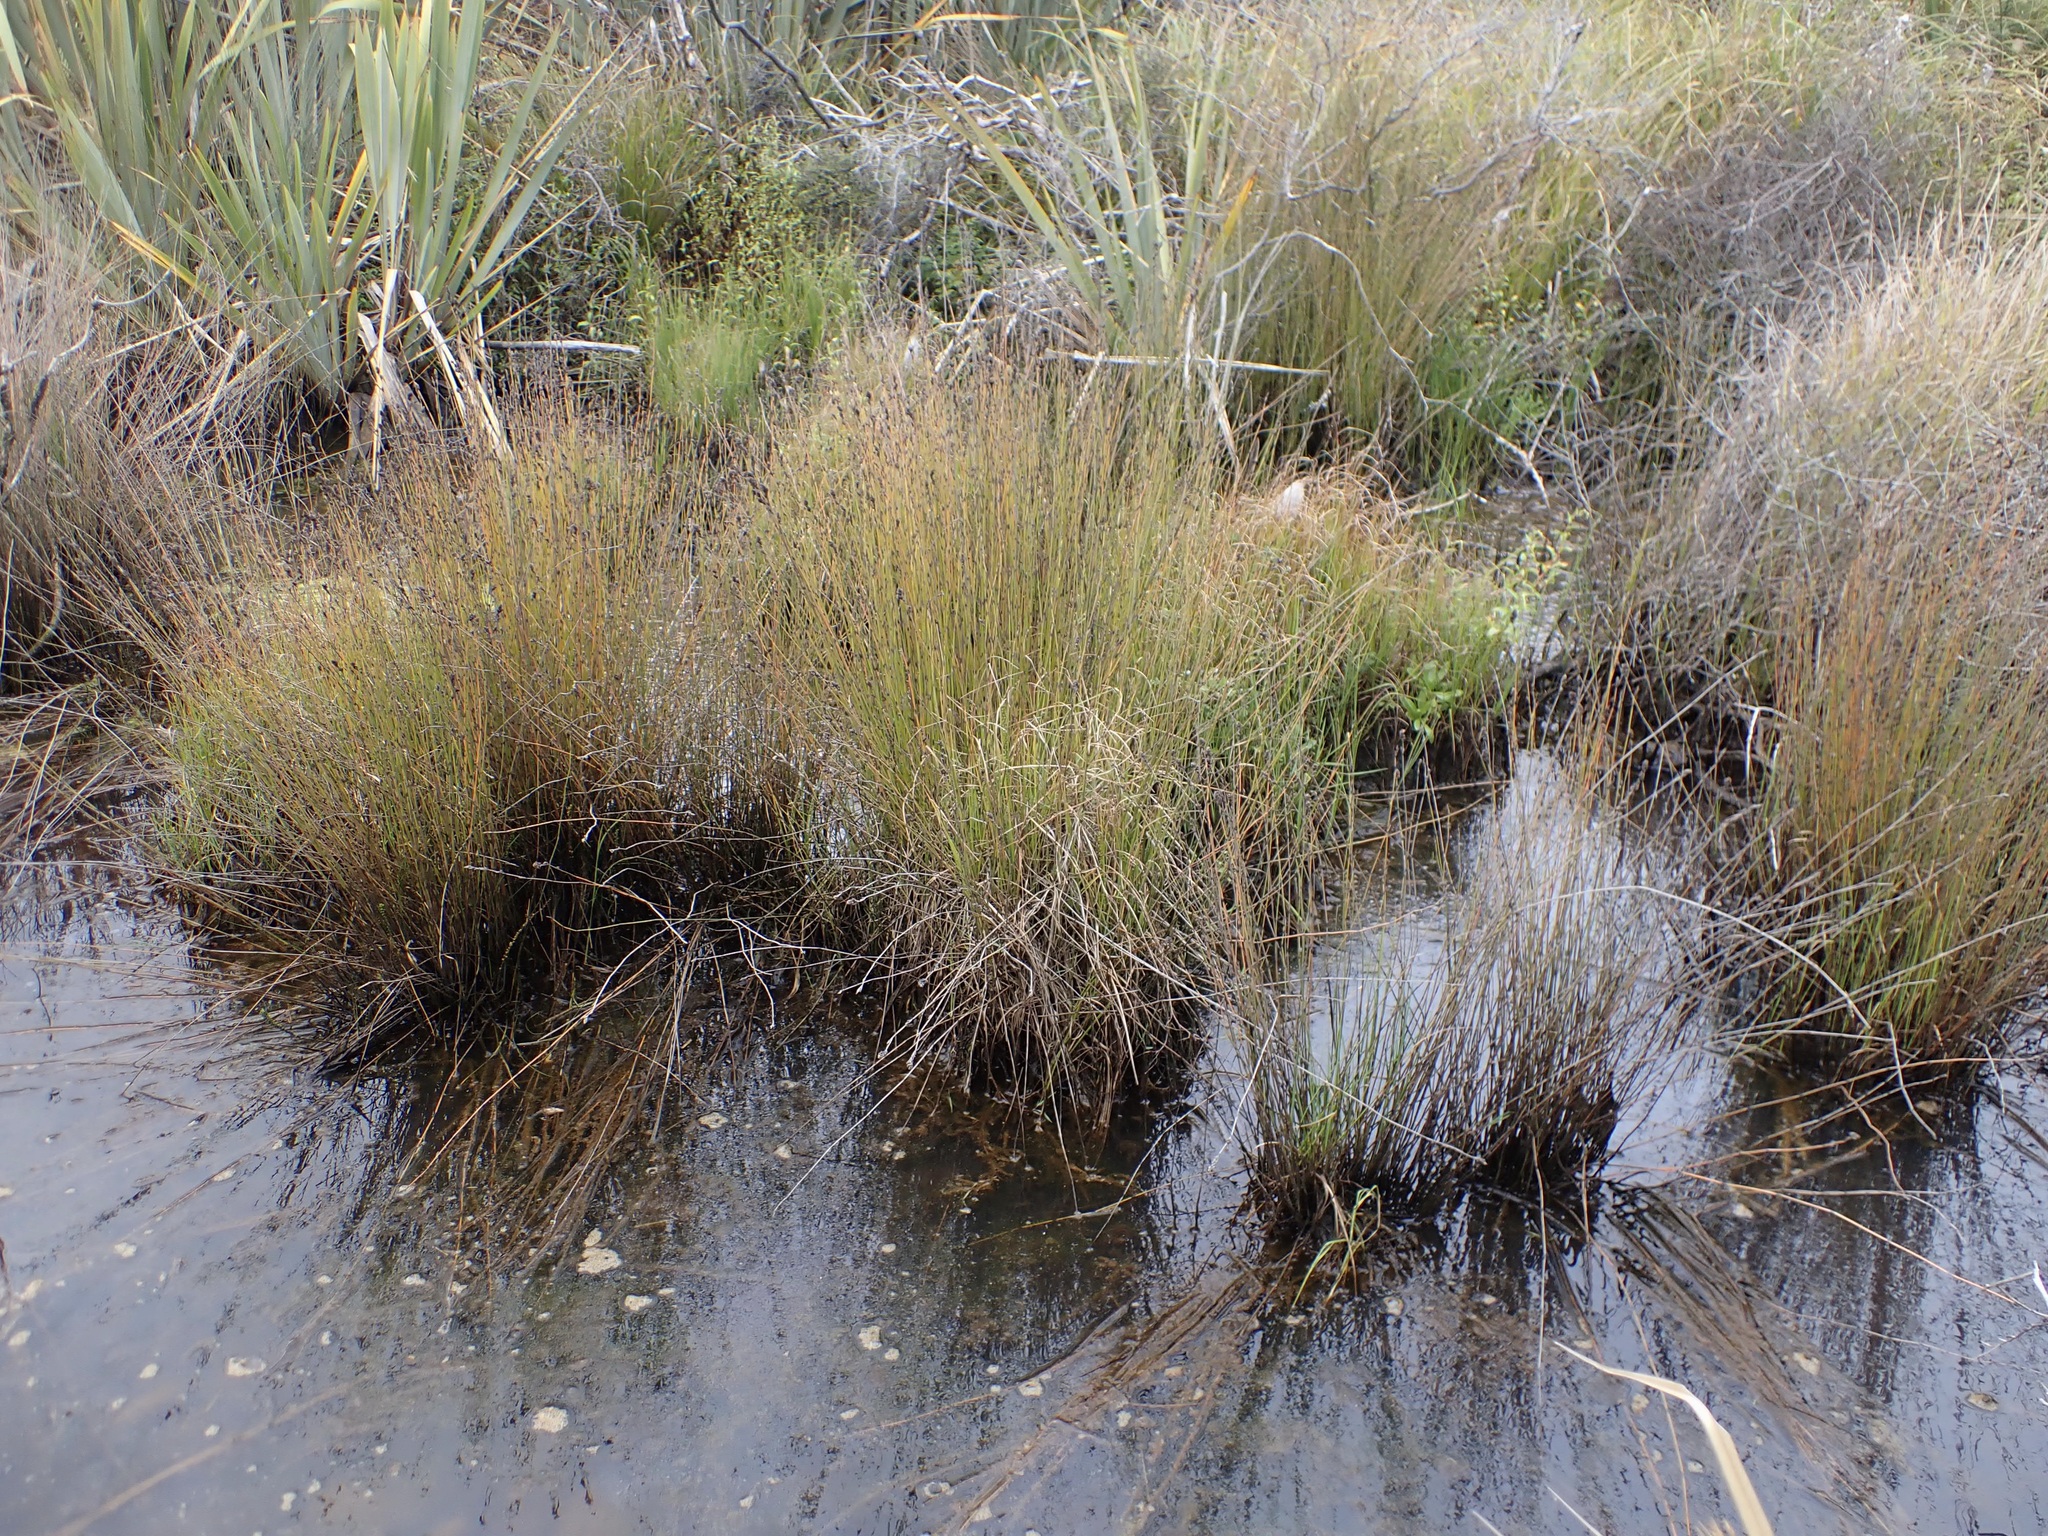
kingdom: Plantae
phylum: Tracheophyta
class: Liliopsida
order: Poales
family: Restionaceae
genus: Apodasmia
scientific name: Apodasmia similis
